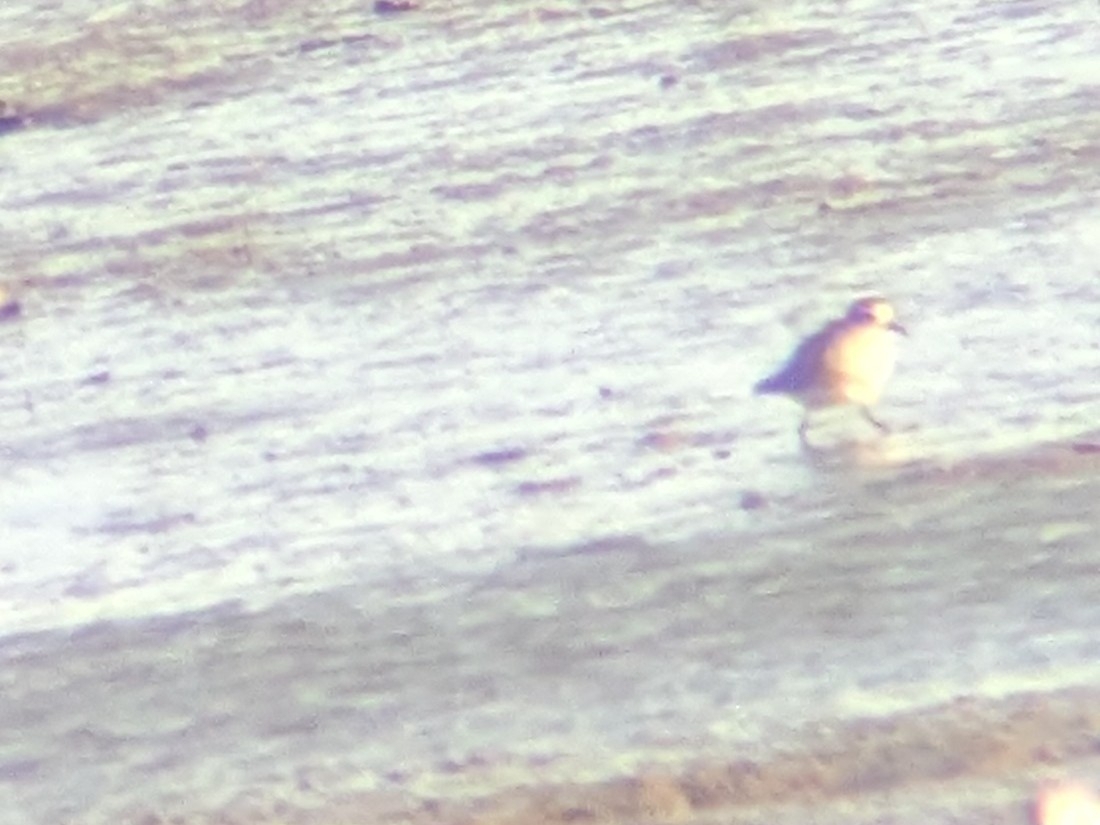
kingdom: Animalia
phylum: Chordata
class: Aves
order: Charadriiformes
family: Charadriidae
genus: Pluvialis
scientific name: Pluvialis squatarola
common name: Grey plover
